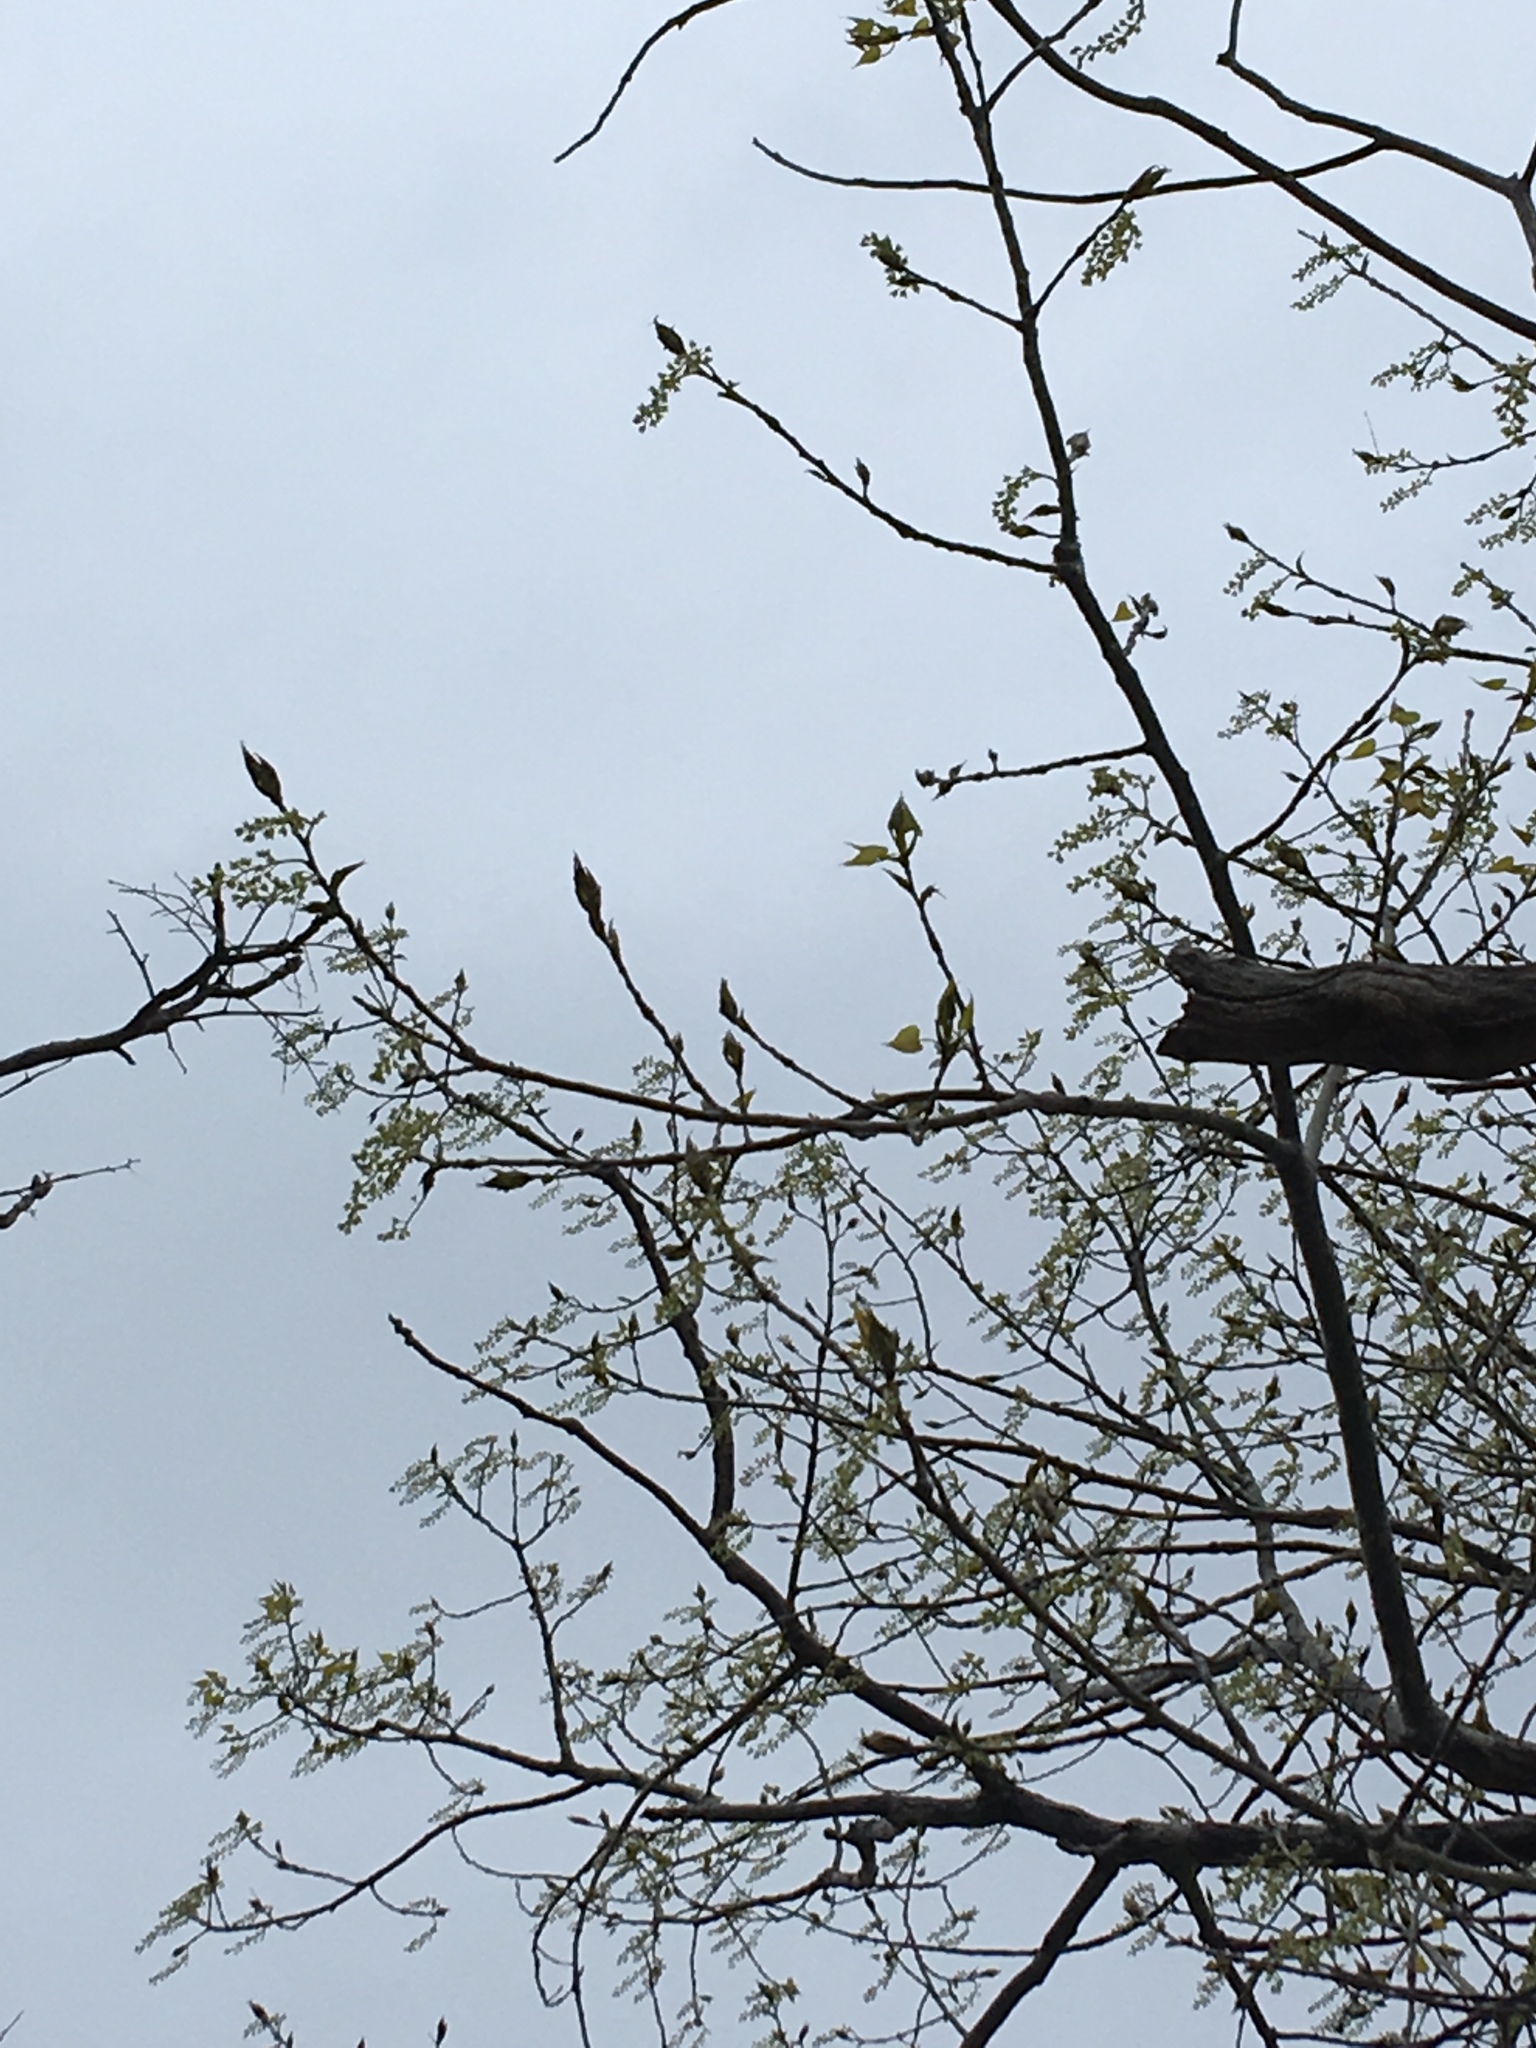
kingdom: Plantae
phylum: Tracheophyta
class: Magnoliopsida
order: Malpighiales
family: Salicaceae
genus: Populus
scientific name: Populus deltoides
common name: Eastern cottonwood
